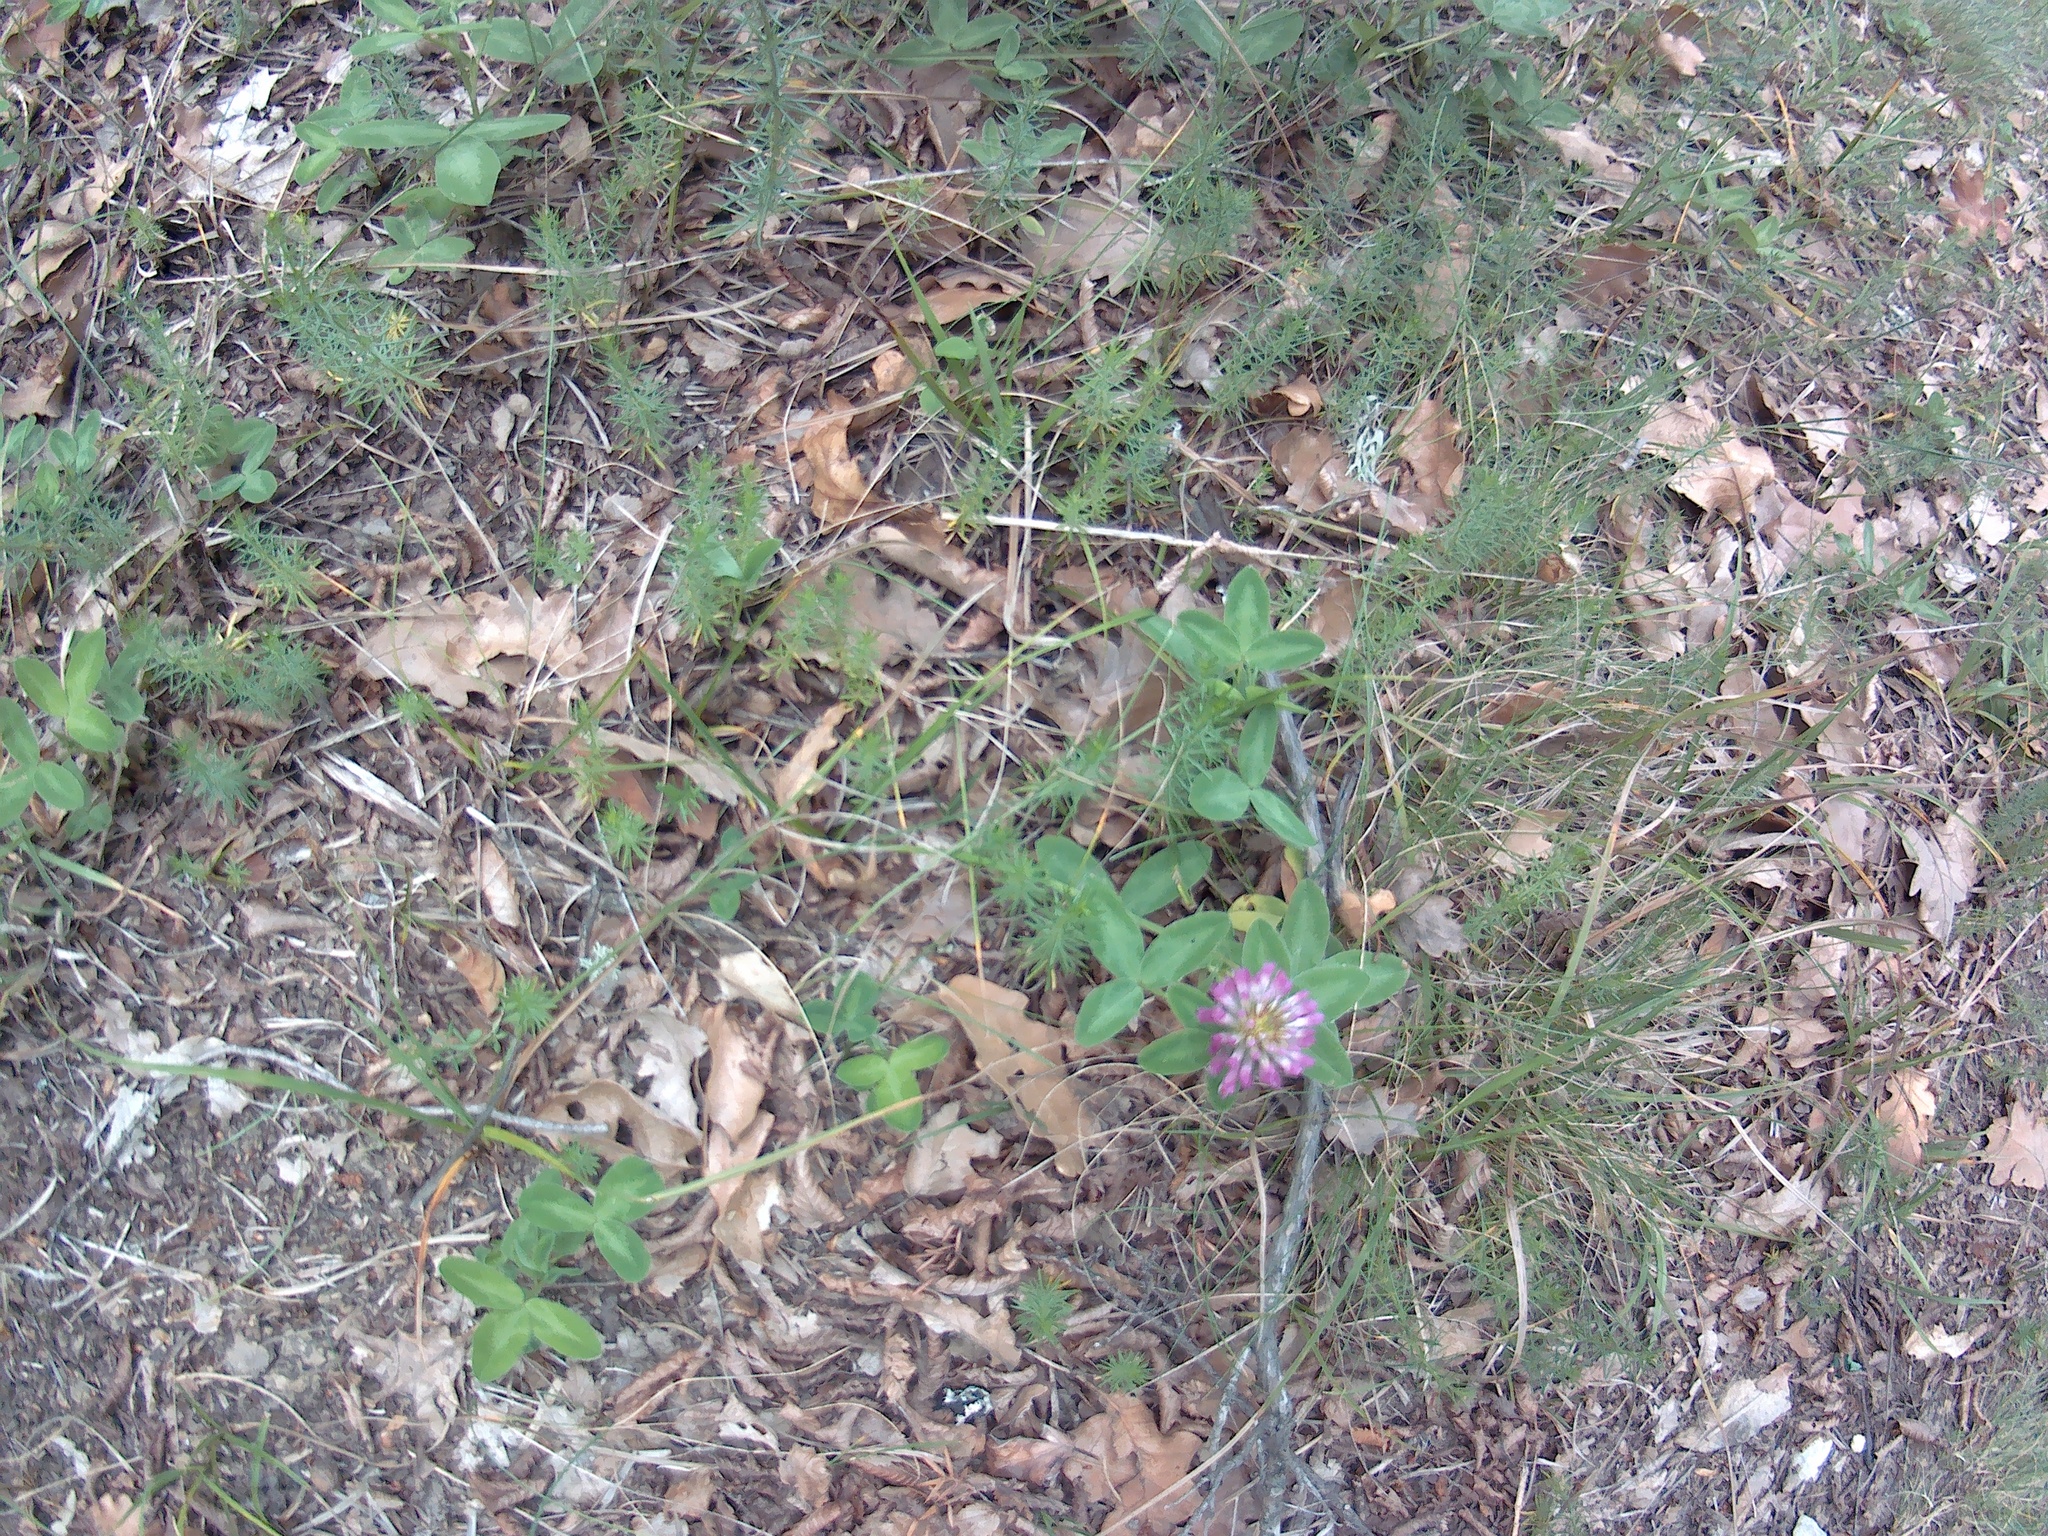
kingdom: Plantae
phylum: Tracheophyta
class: Magnoliopsida
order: Fabales
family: Fabaceae
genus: Trifolium
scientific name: Trifolium pratense
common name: Red clover
